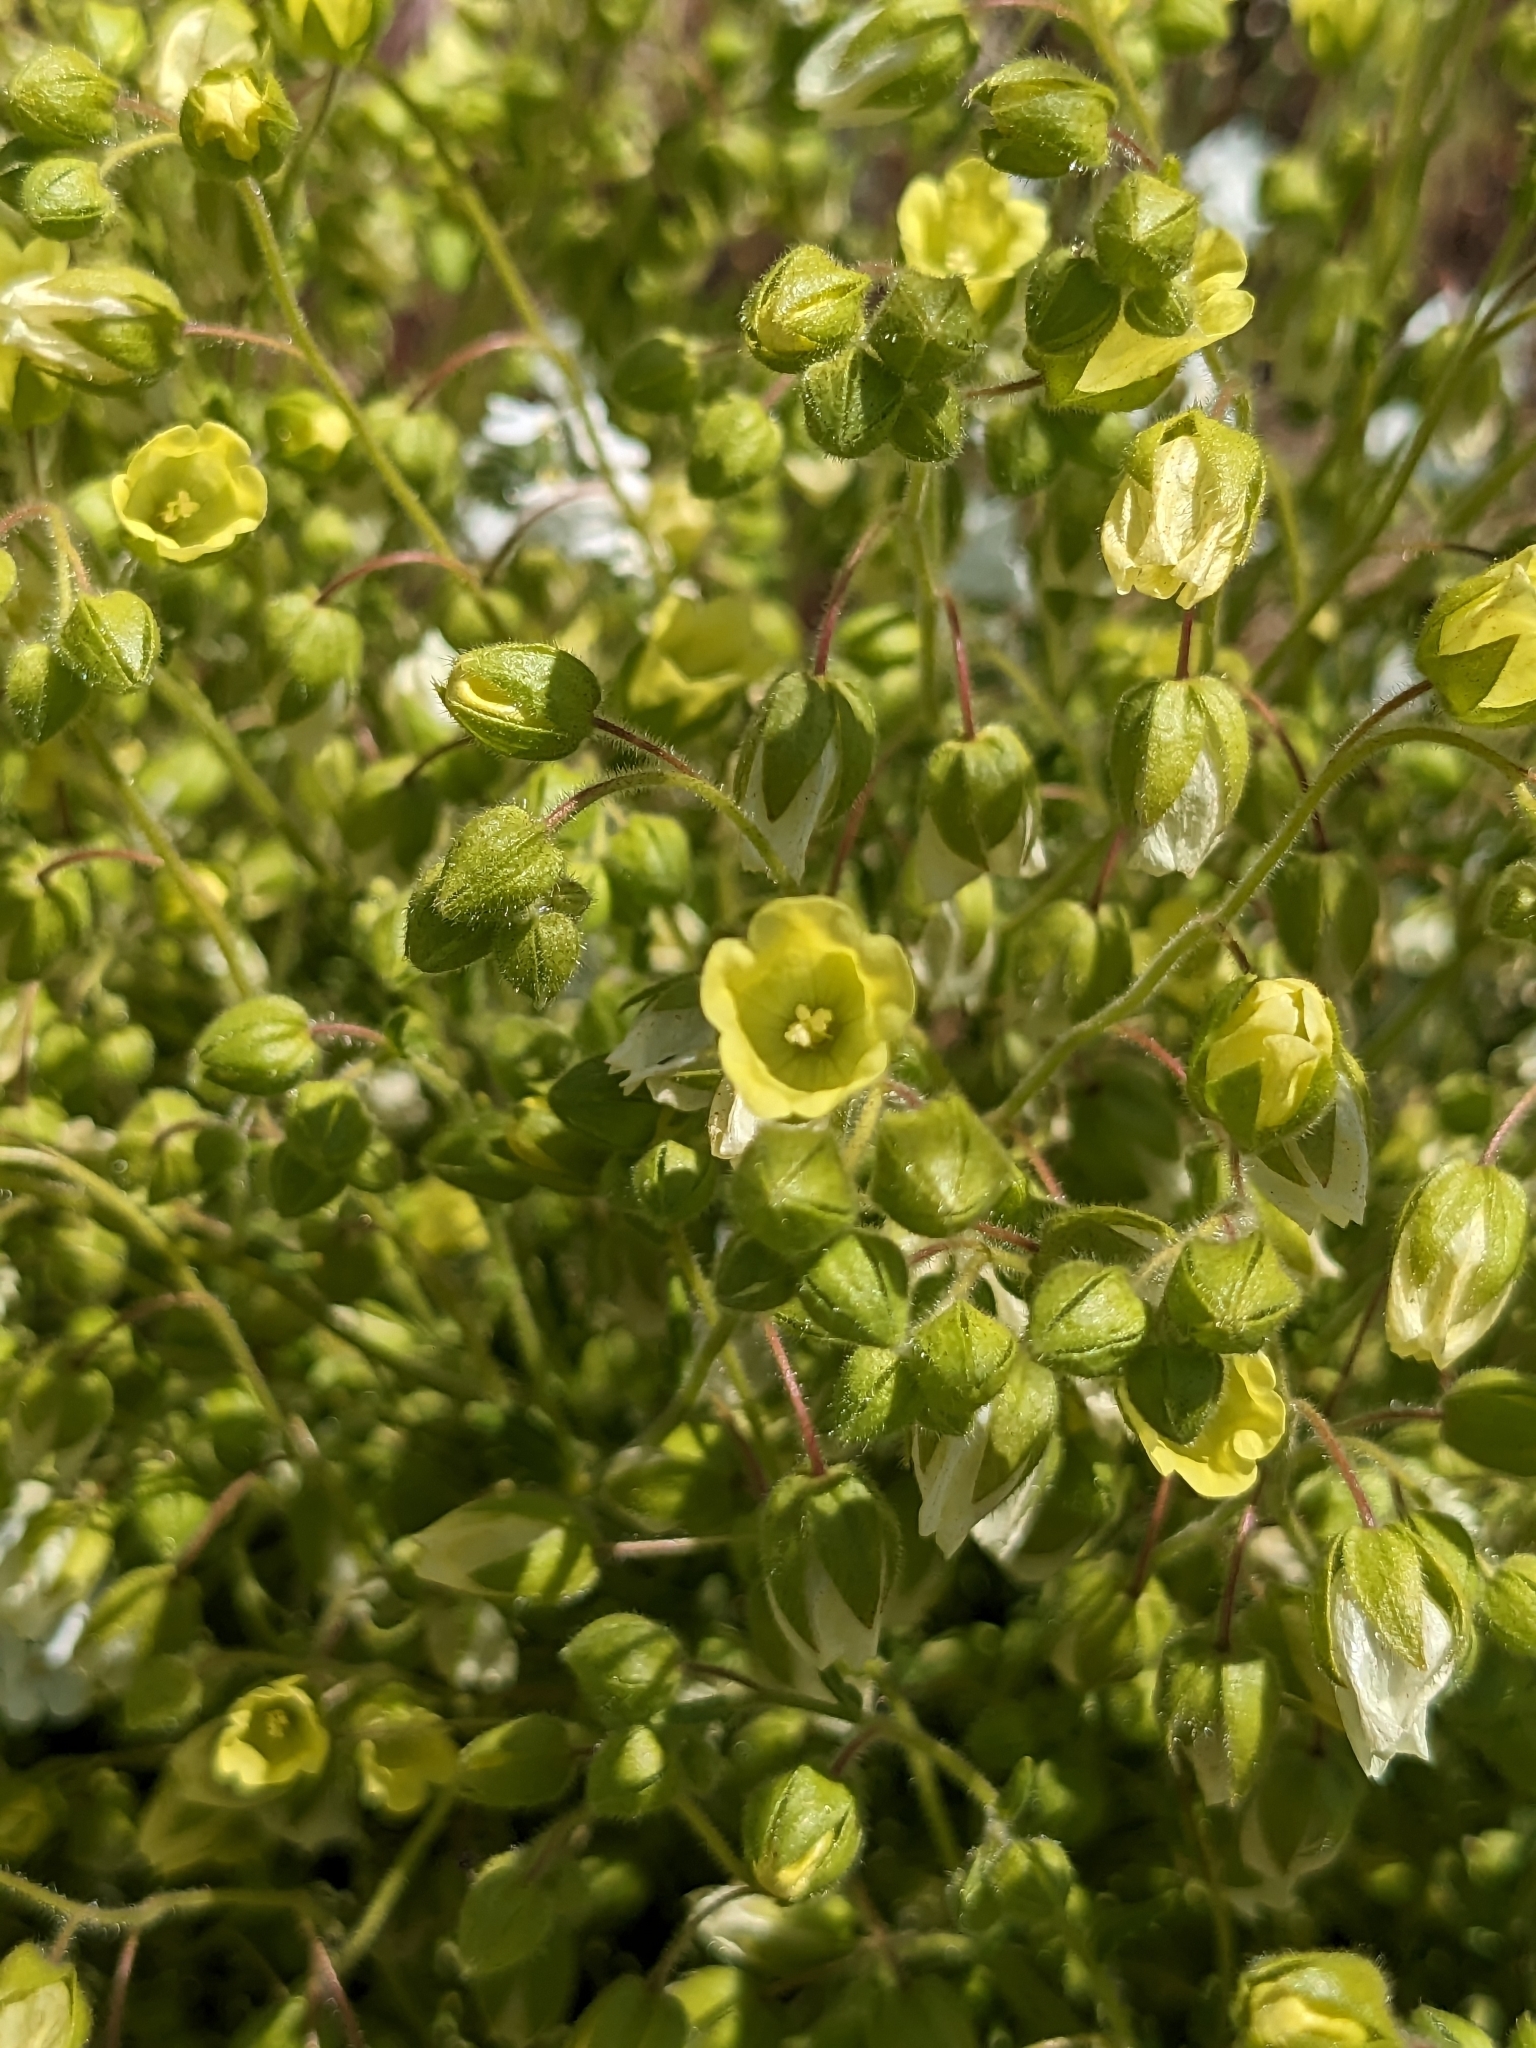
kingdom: Plantae
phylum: Tracheophyta
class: Magnoliopsida
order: Boraginales
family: Hydrophyllaceae
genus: Emmenanthe
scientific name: Emmenanthe penduliflora
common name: Whispering-bells
